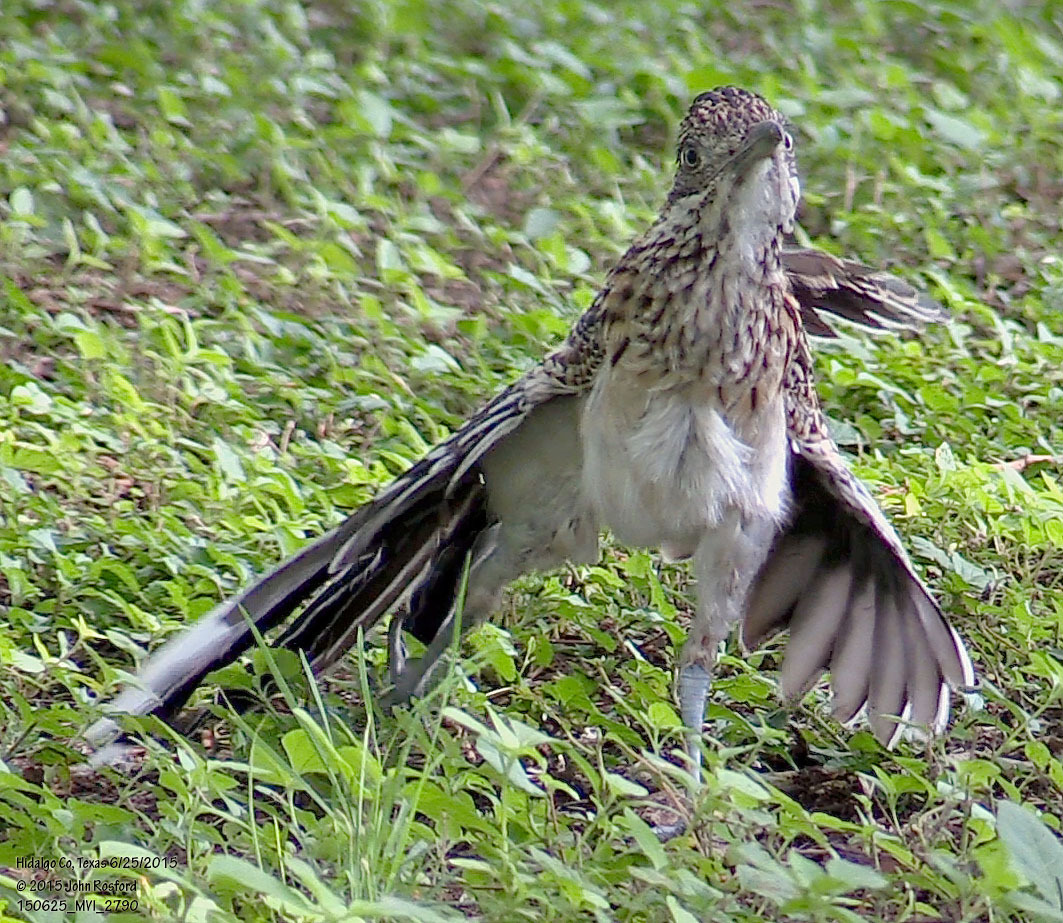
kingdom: Animalia
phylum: Chordata
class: Aves
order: Cuculiformes
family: Cuculidae
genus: Geococcyx
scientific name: Geococcyx californianus
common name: Greater roadrunner
